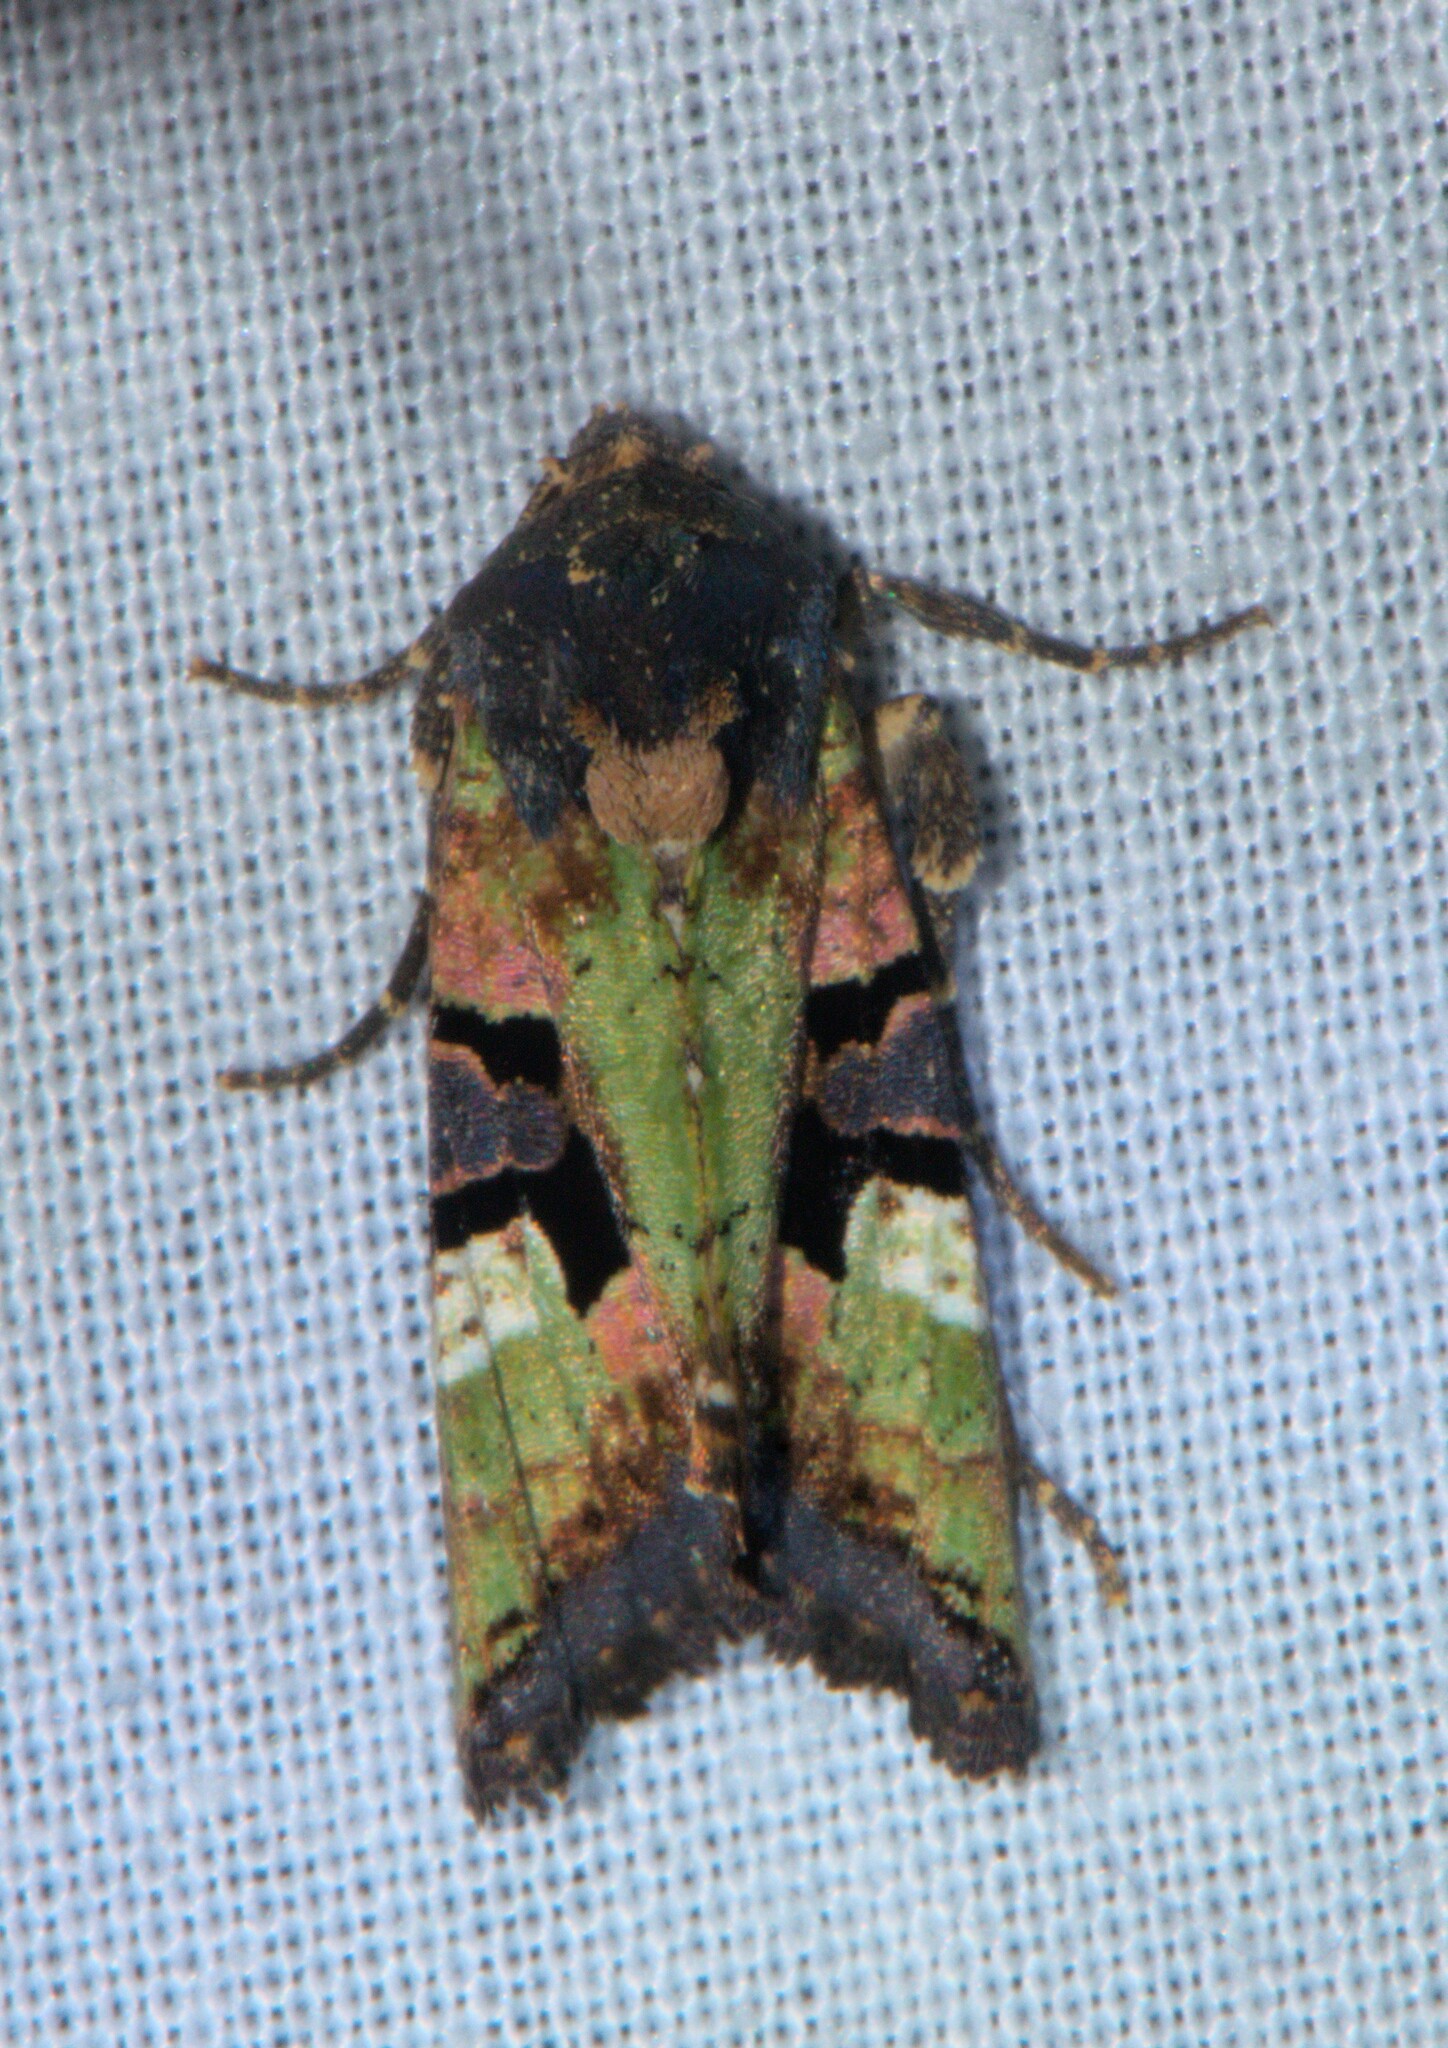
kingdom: Animalia
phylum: Arthropoda
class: Insecta
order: Lepidoptera
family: Noctuidae
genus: Phlogophora
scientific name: Phlogophora discisignata
